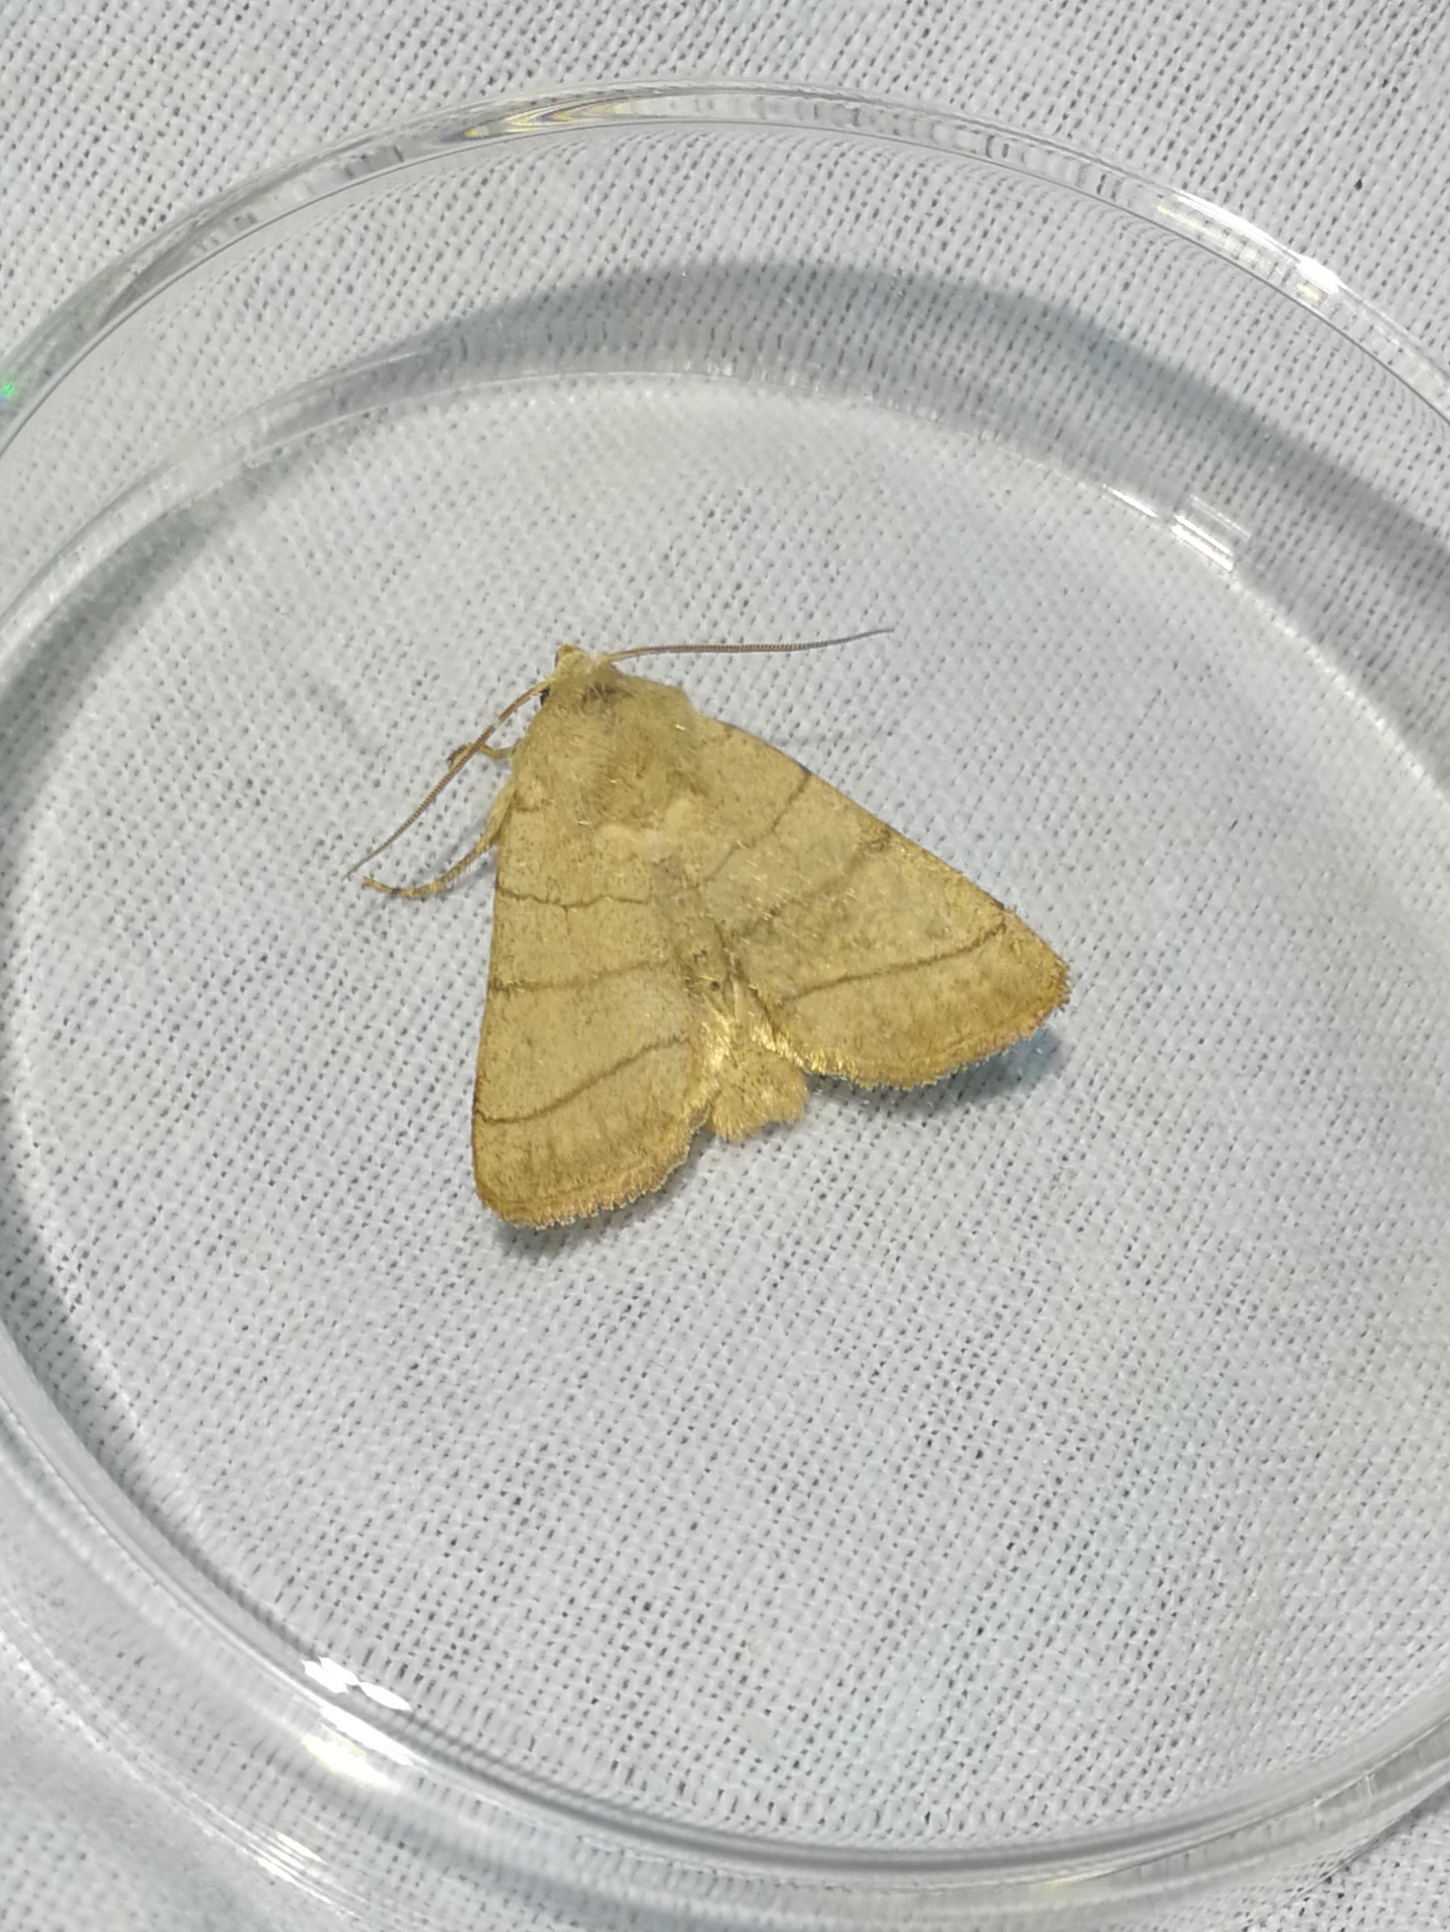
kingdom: Animalia
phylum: Arthropoda
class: Insecta
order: Lepidoptera
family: Noctuidae
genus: Charanyca
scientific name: Charanyca trigrammica
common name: Treble lines
